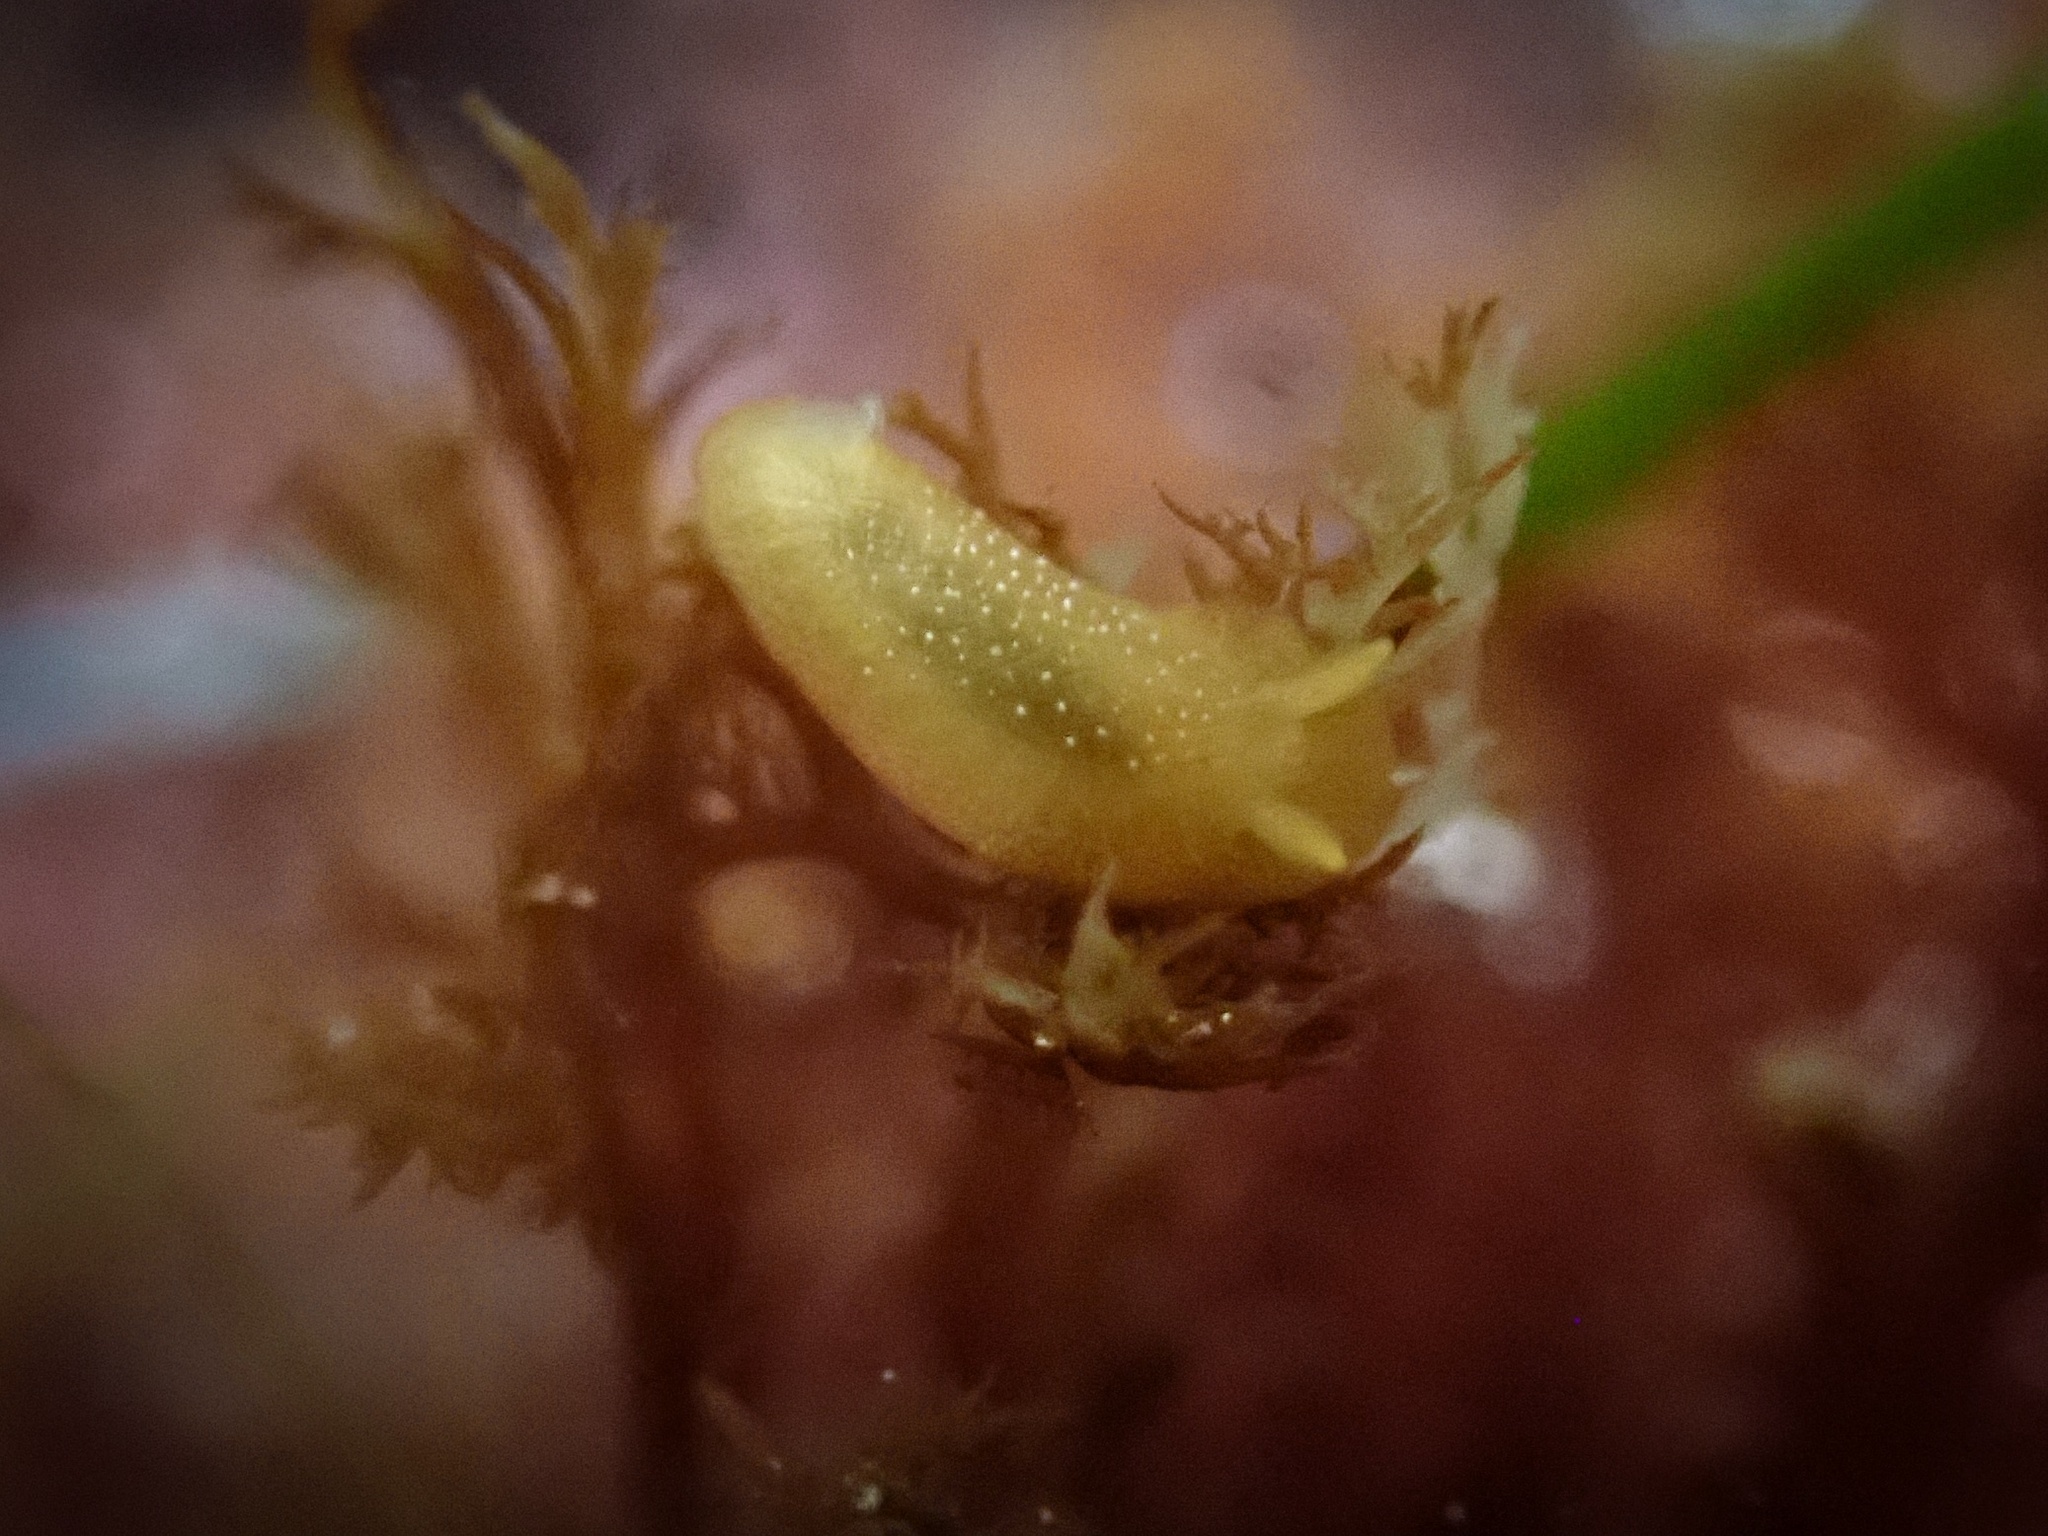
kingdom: Animalia
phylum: Mollusca
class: Gastropoda
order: Nudibranchia
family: Dendrodorididae
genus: Doriopsilla
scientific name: Doriopsilla albopunctata
